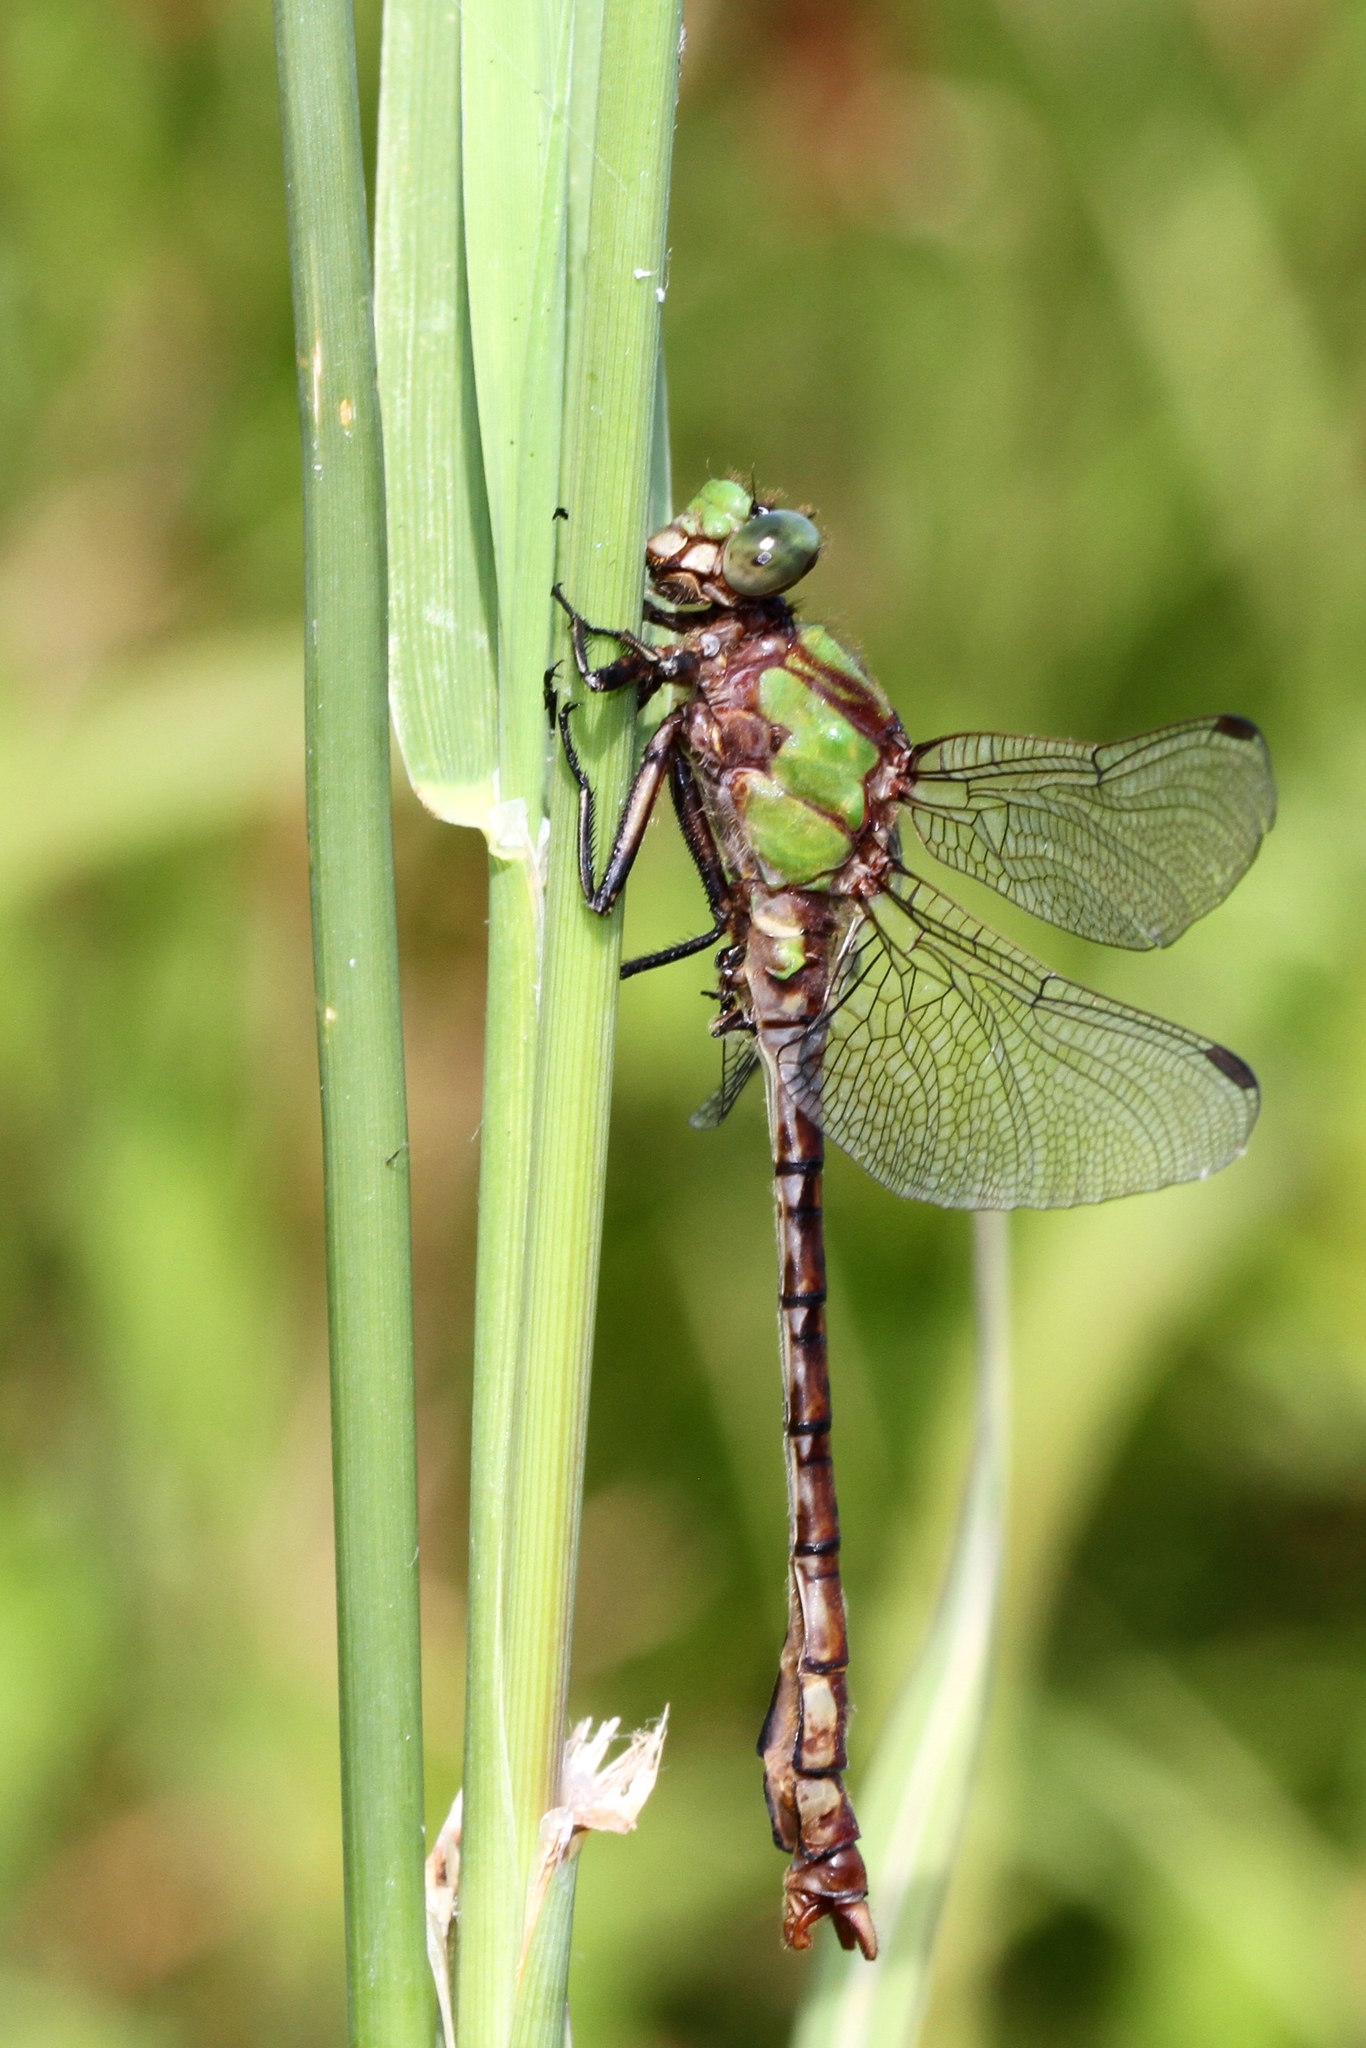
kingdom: Animalia
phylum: Arthropoda
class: Insecta
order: Odonata
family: Gomphidae
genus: Ophiogomphus
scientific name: Ophiogomphus rupinsulensis
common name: Rusty snaketail
